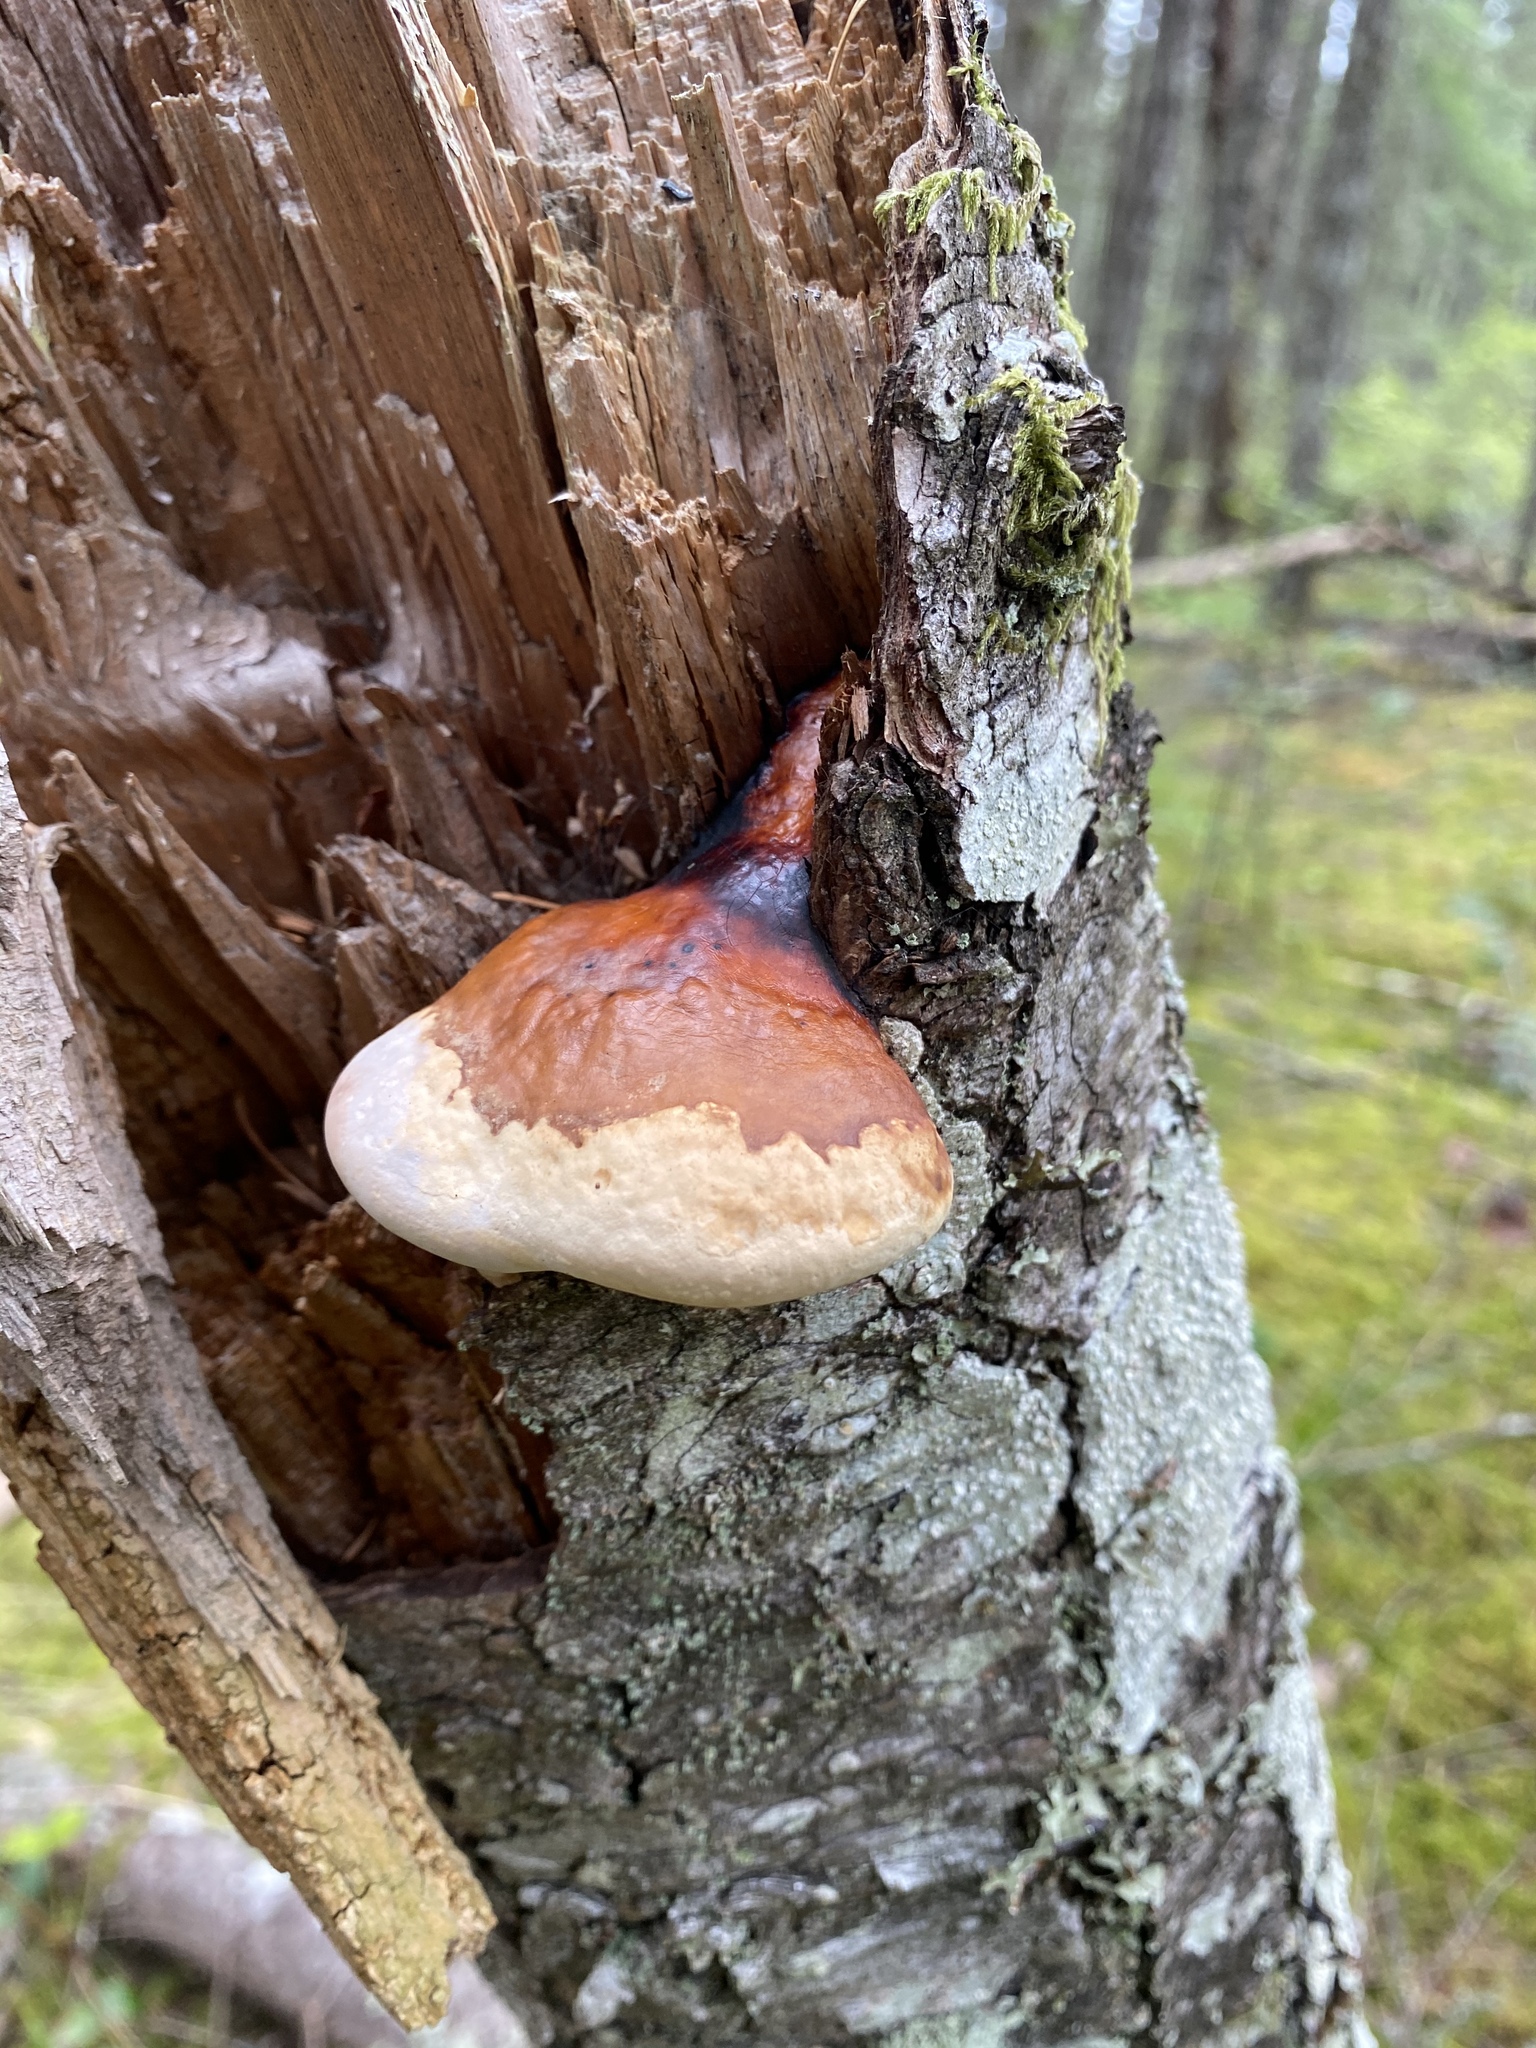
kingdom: Fungi
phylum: Basidiomycota
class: Agaricomycetes
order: Polyporales
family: Fomitopsidaceae
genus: Fomitopsis
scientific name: Fomitopsis mounceae
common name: Northern red belt
